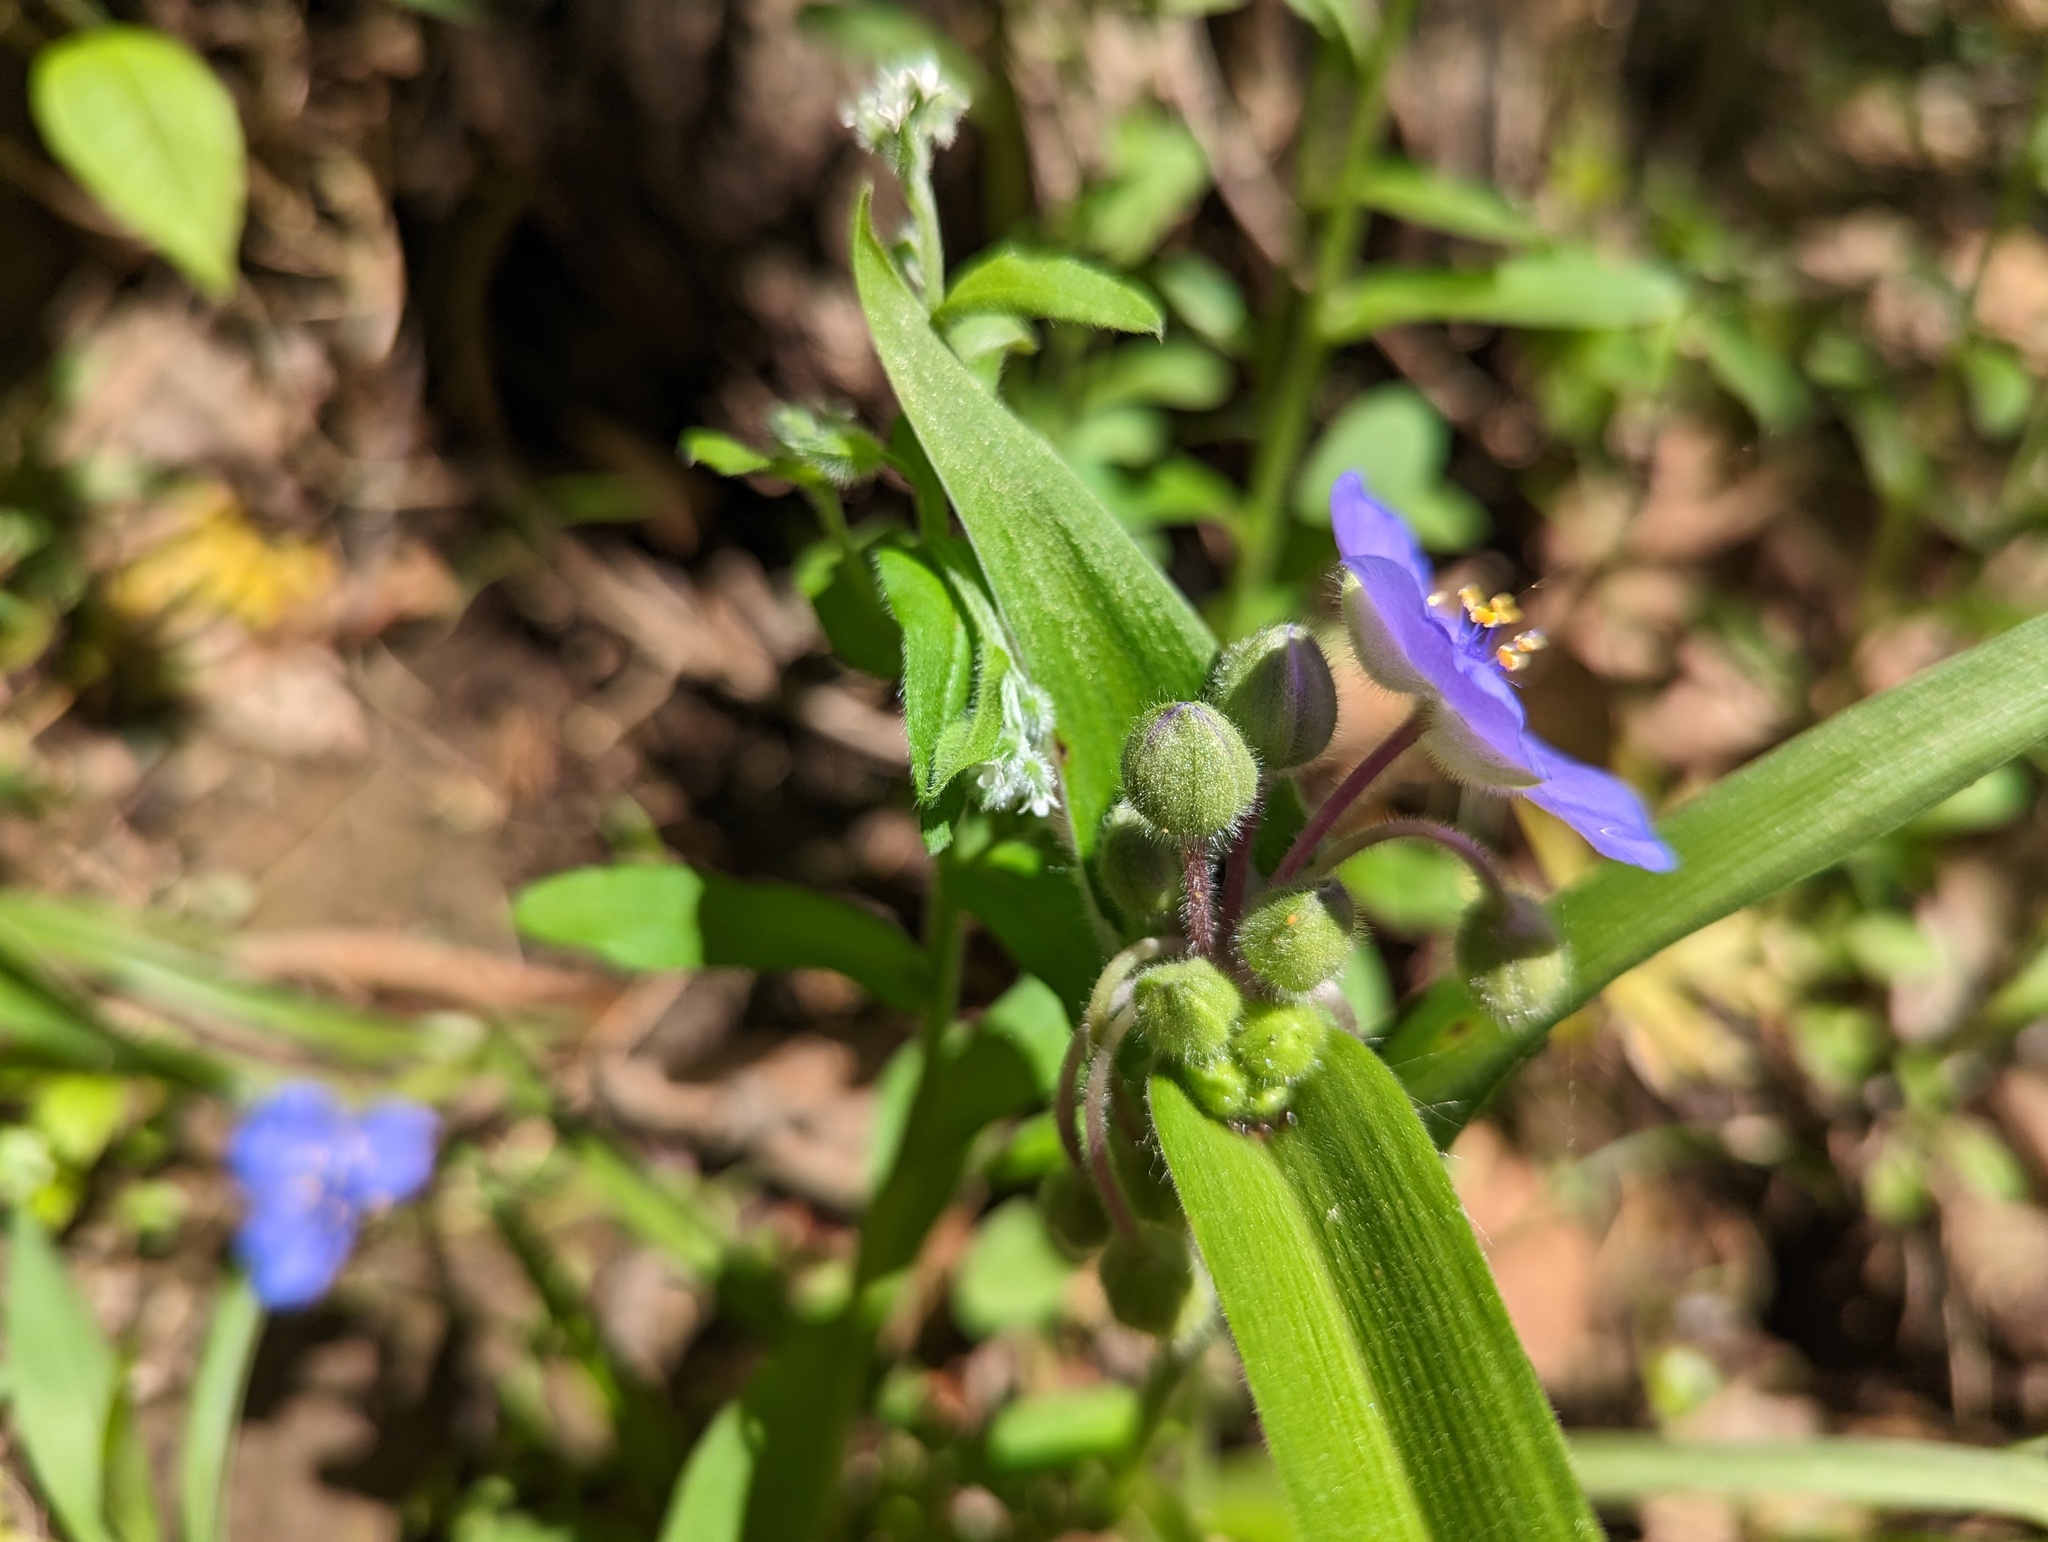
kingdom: Plantae
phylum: Tracheophyta
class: Liliopsida
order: Commelinales
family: Commelinaceae
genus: Tradescantia
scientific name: Tradescantia virginiana
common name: Spiderwort
